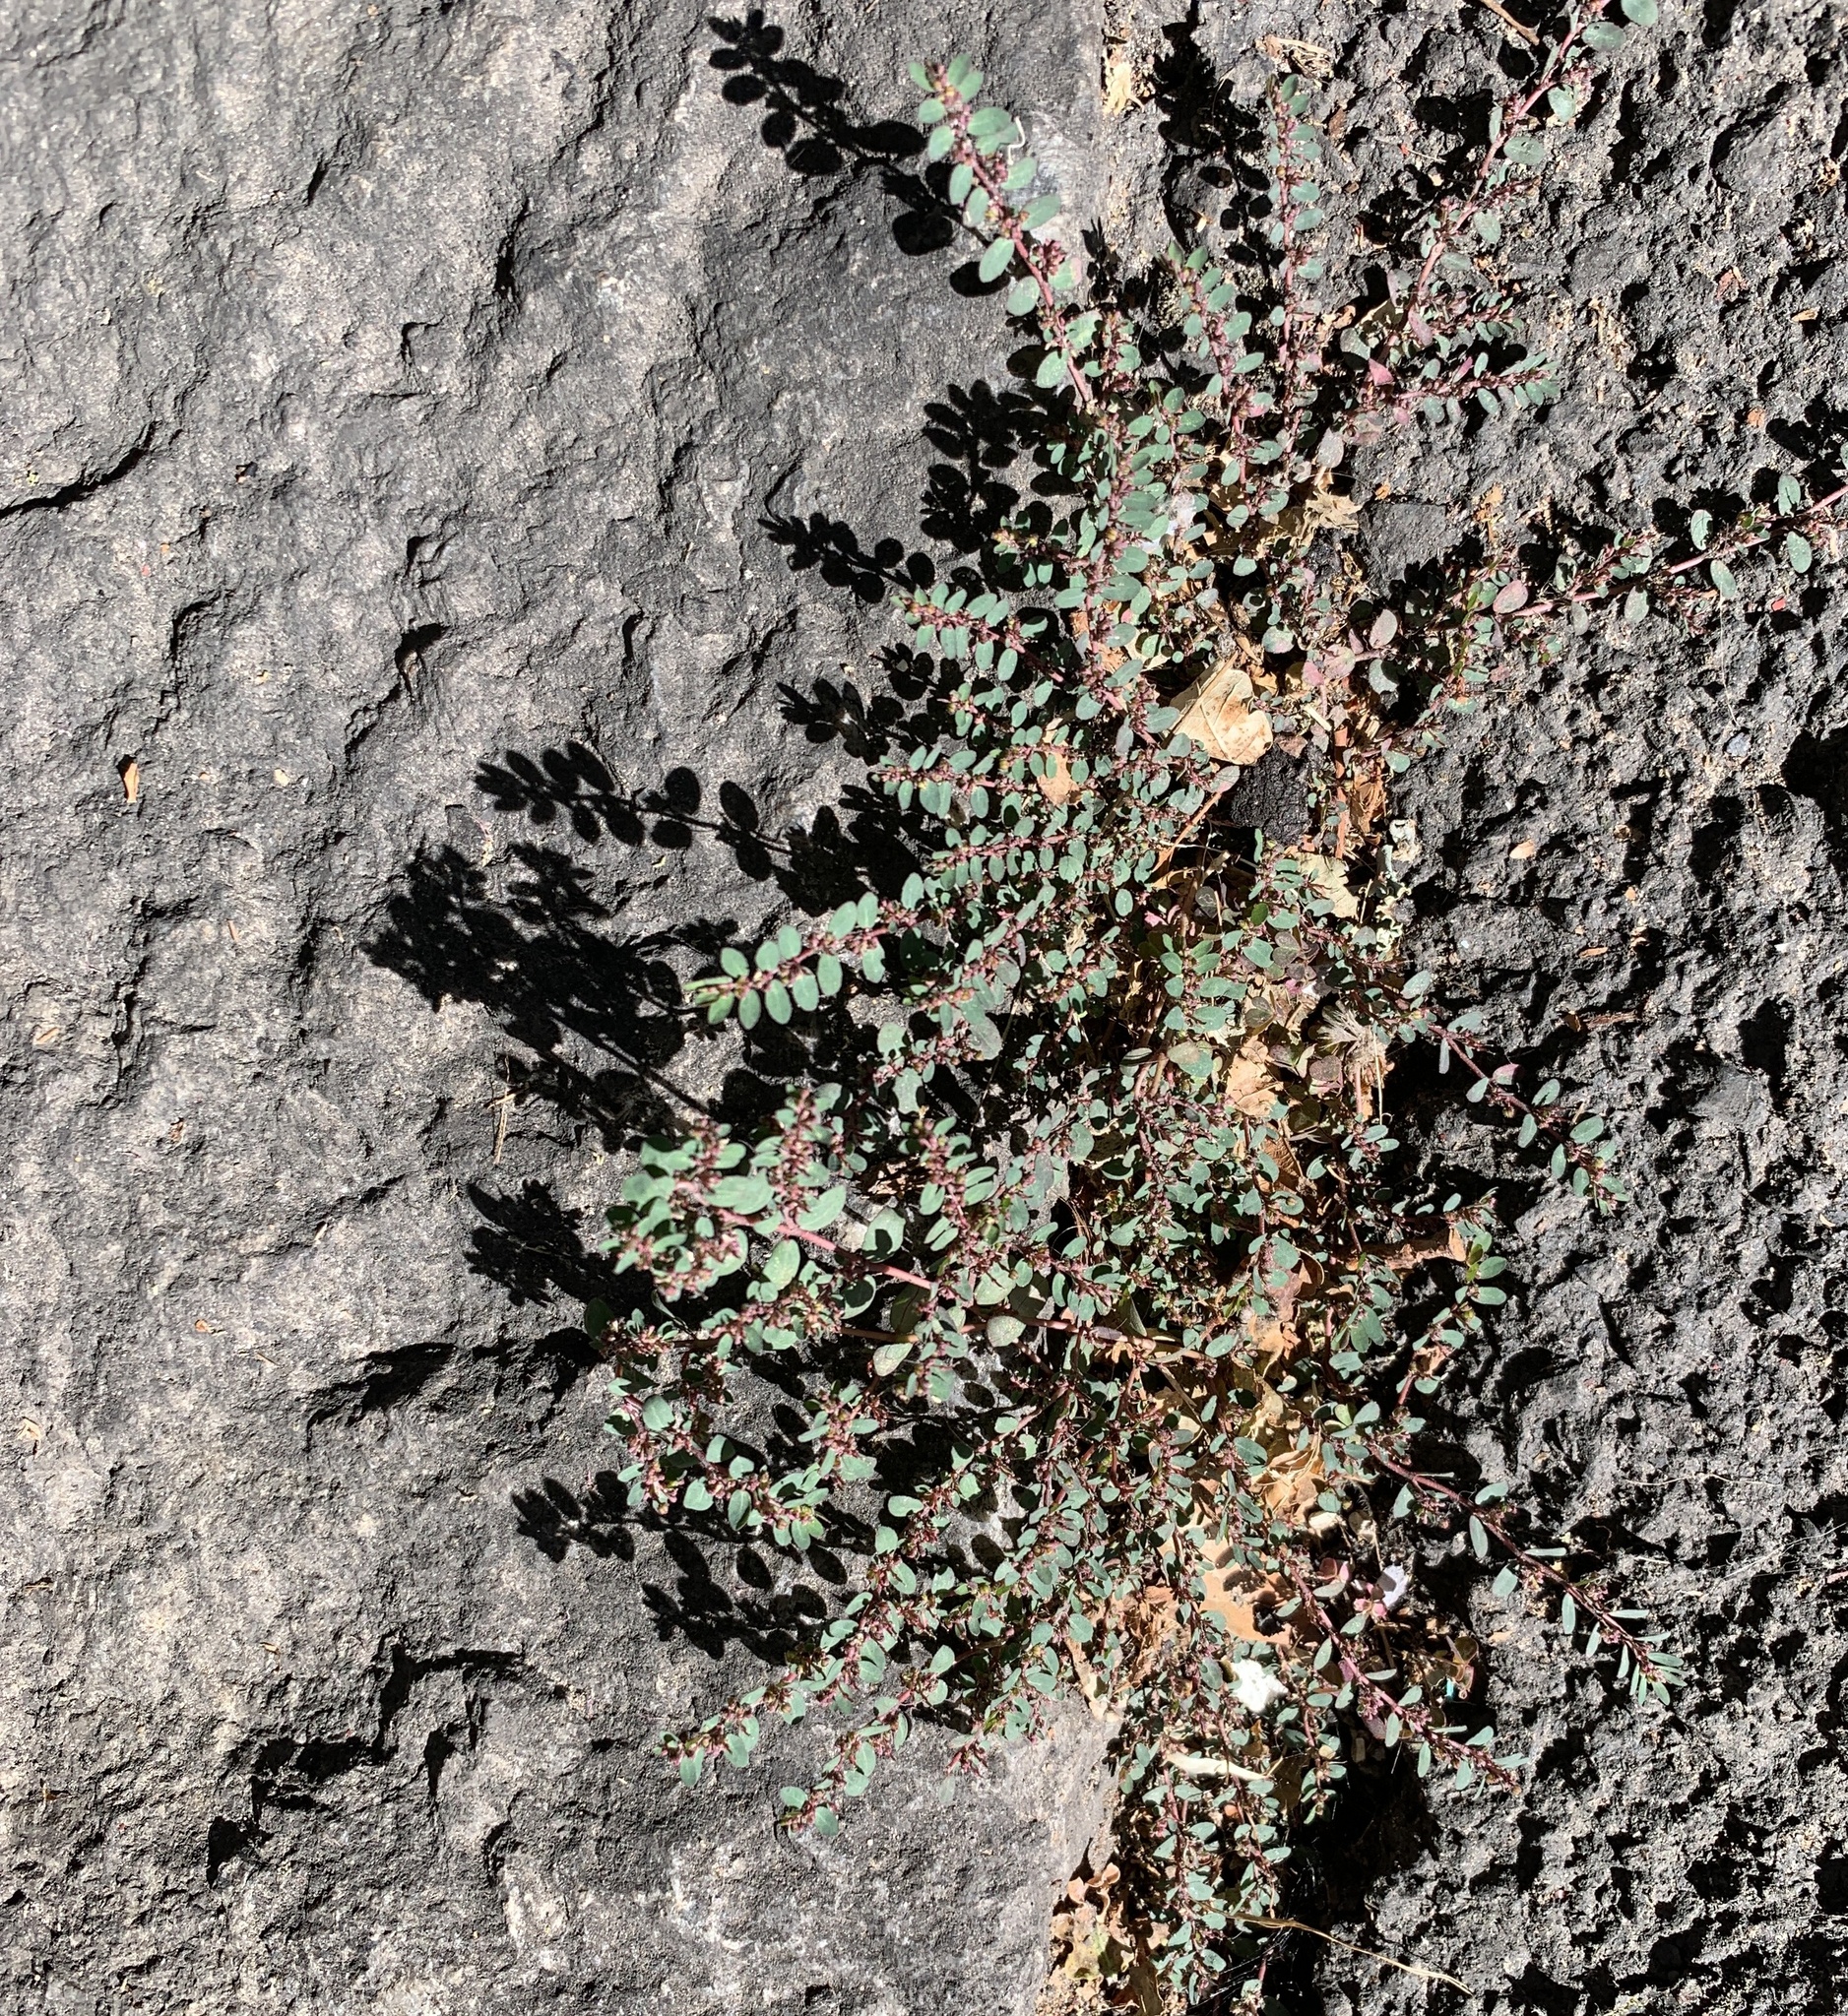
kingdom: Plantae
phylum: Tracheophyta
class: Magnoliopsida
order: Malpighiales
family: Euphorbiaceae
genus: Euphorbia
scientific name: Euphorbia prostrata
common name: Prostrate sandmat
